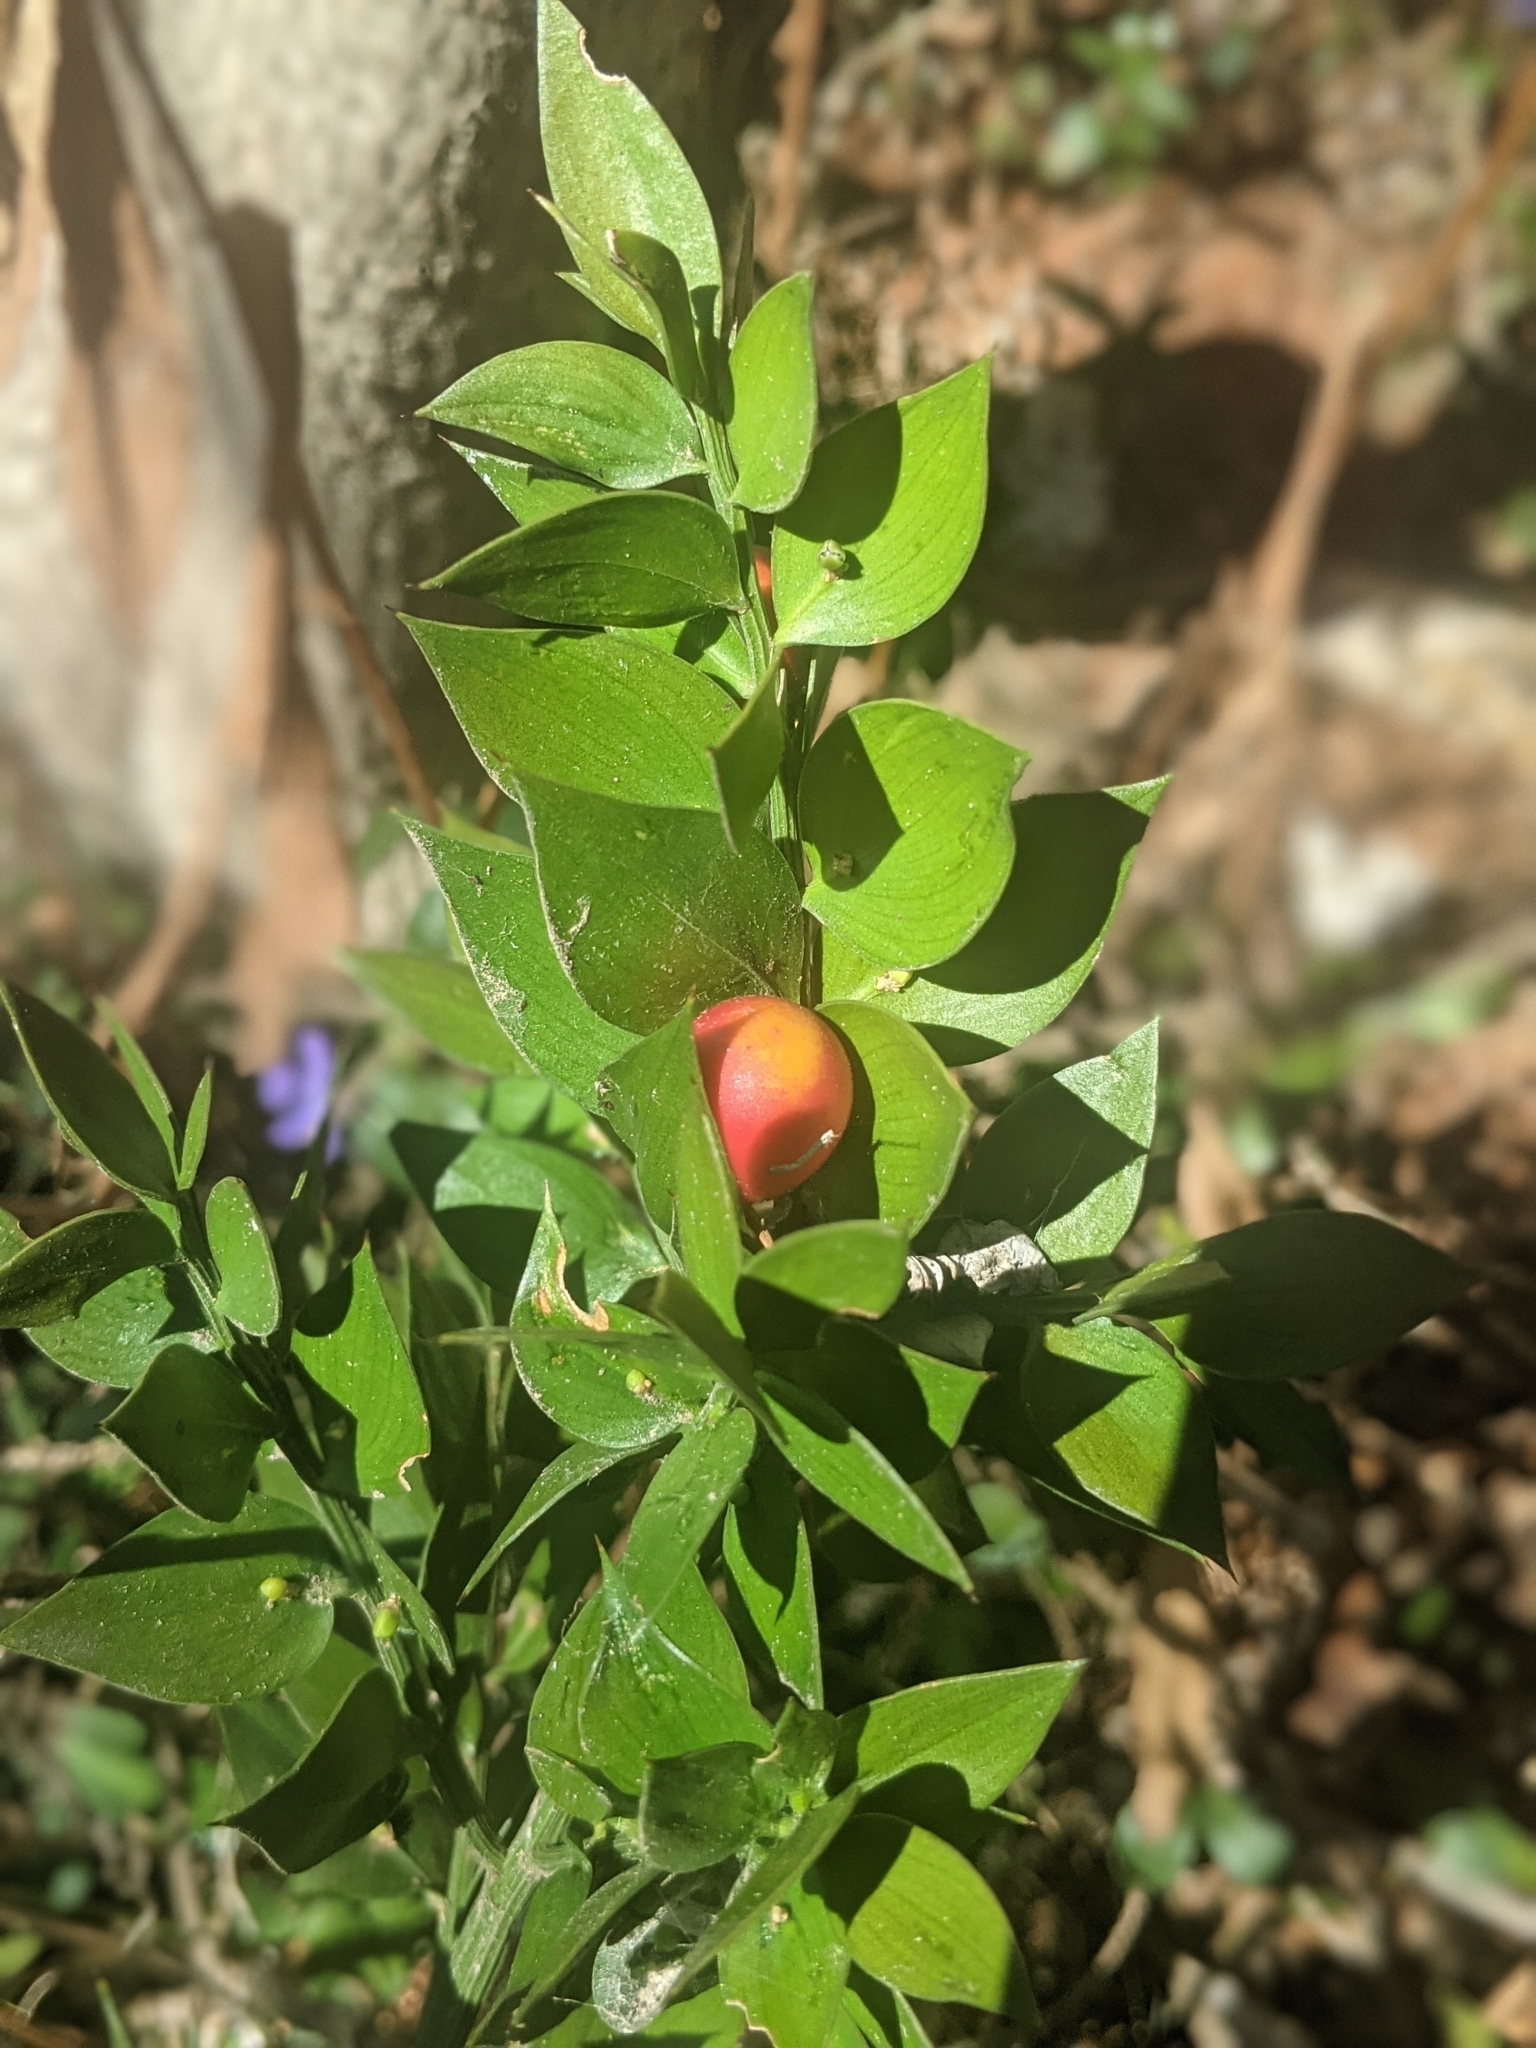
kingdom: Plantae
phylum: Tracheophyta
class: Liliopsida
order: Asparagales
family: Asparagaceae
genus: Ruscus
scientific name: Ruscus aculeatus
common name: Butcher's-broom
